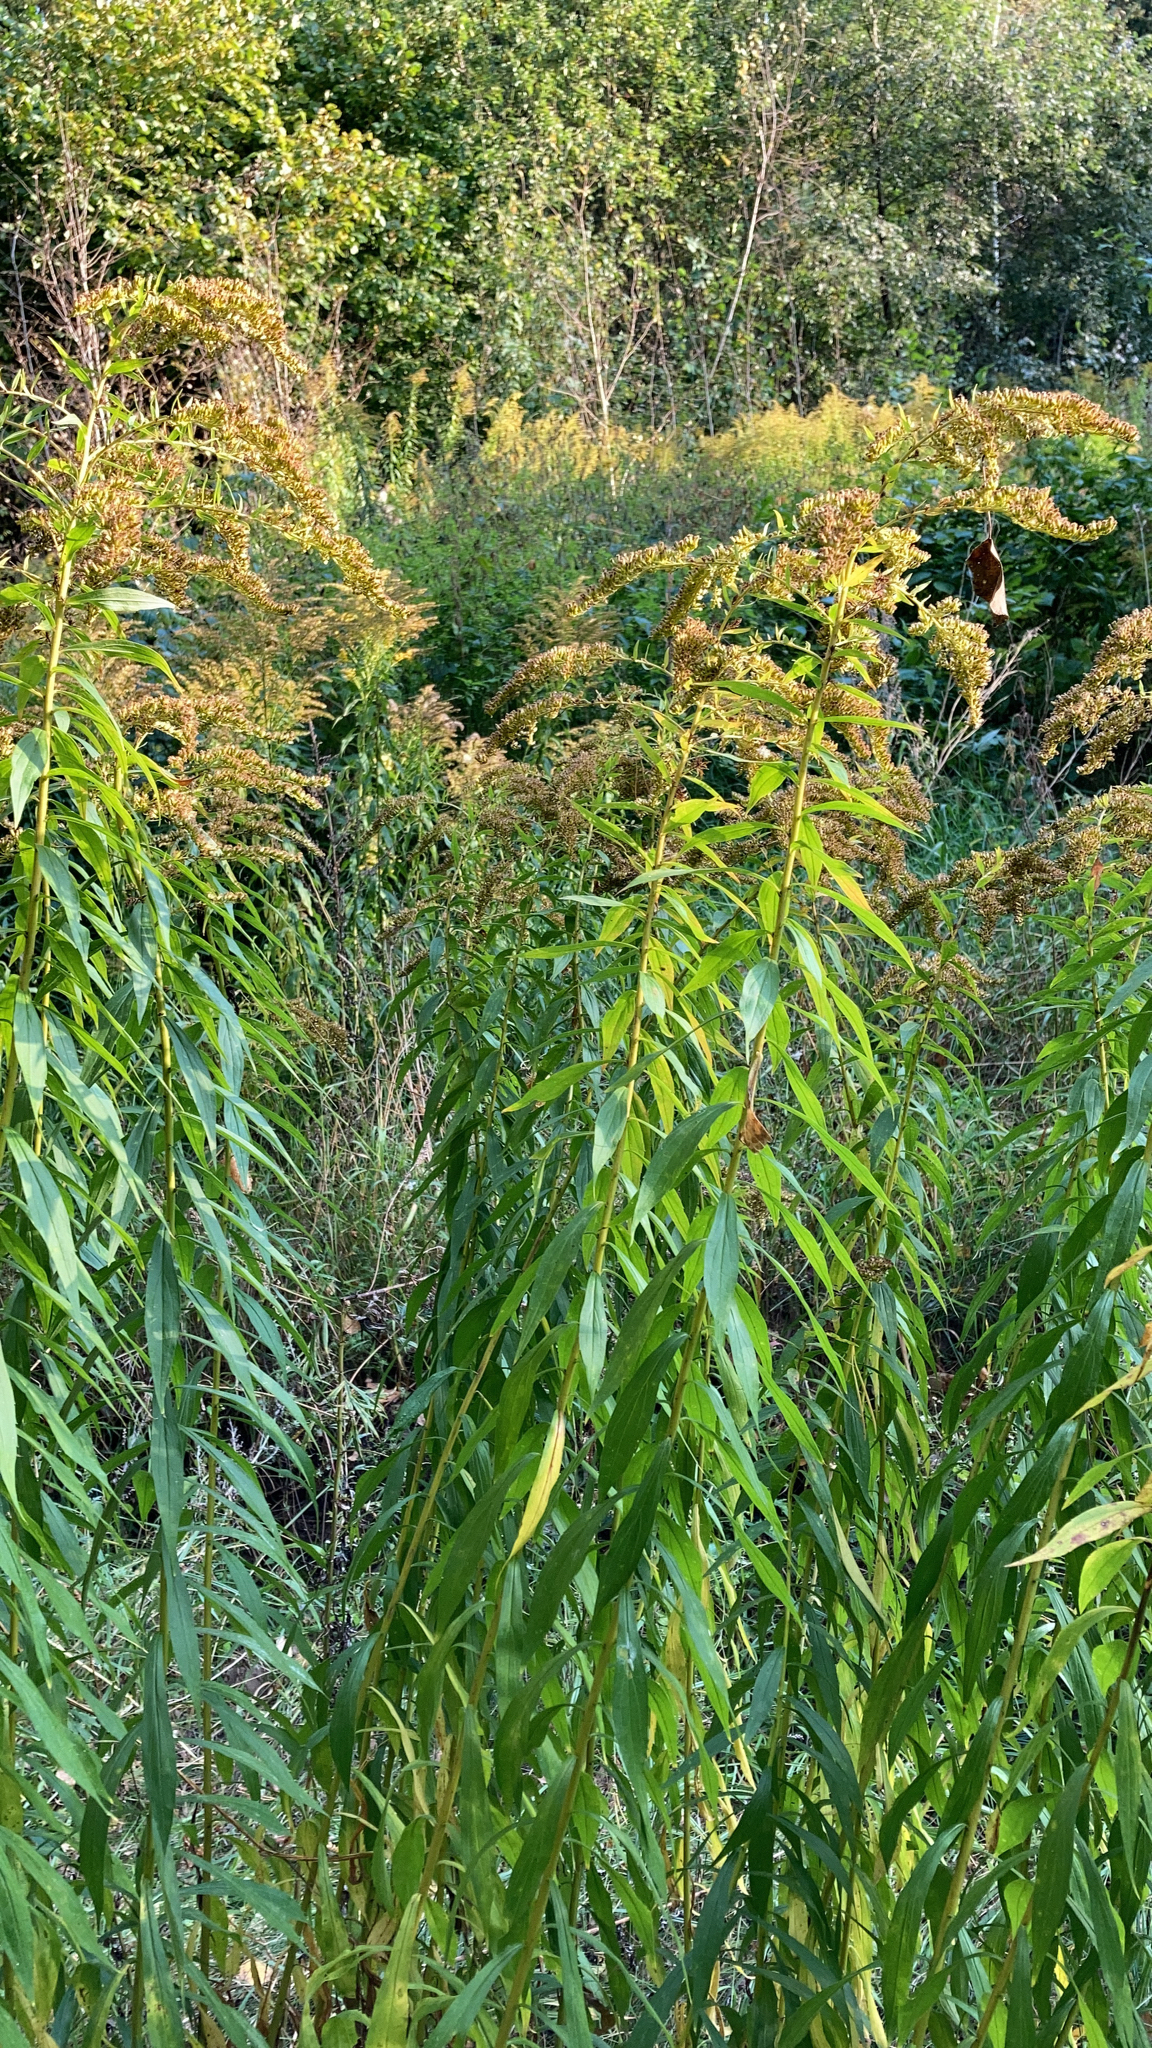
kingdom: Plantae
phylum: Tracheophyta
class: Magnoliopsida
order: Asterales
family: Asteraceae
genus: Solidago
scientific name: Solidago canadensis
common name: Canada goldenrod
